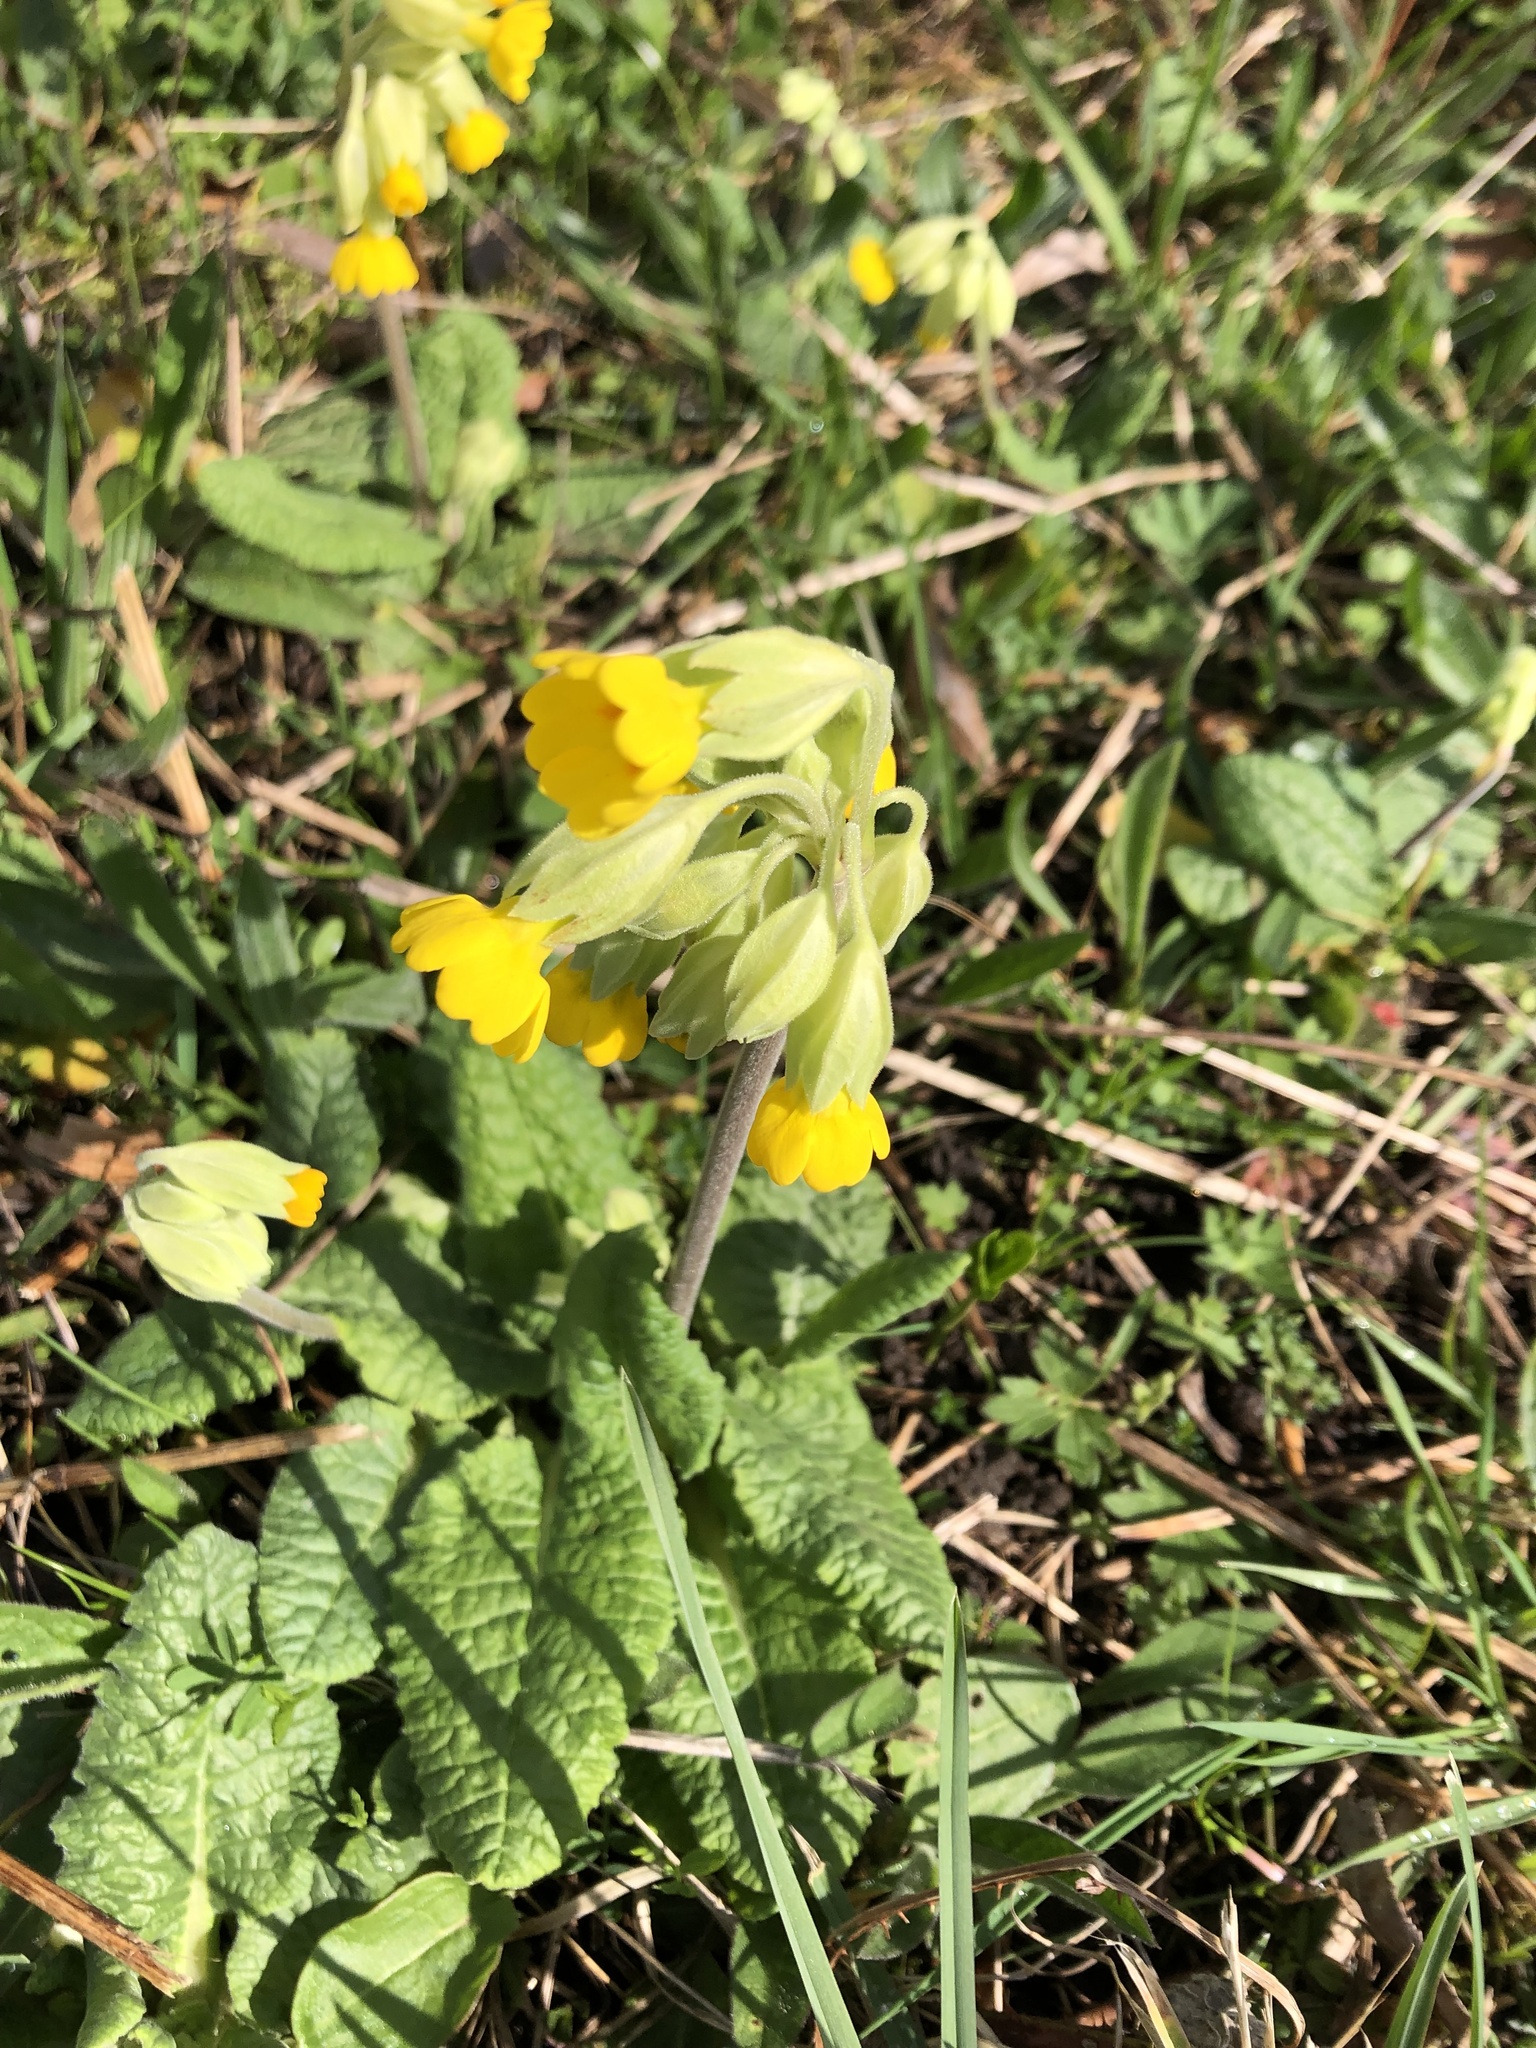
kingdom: Plantae
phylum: Tracheophyta
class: Magnoliopsida
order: Ericales
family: Primulaceae
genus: Primula
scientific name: Primula veris
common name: Cowslip
